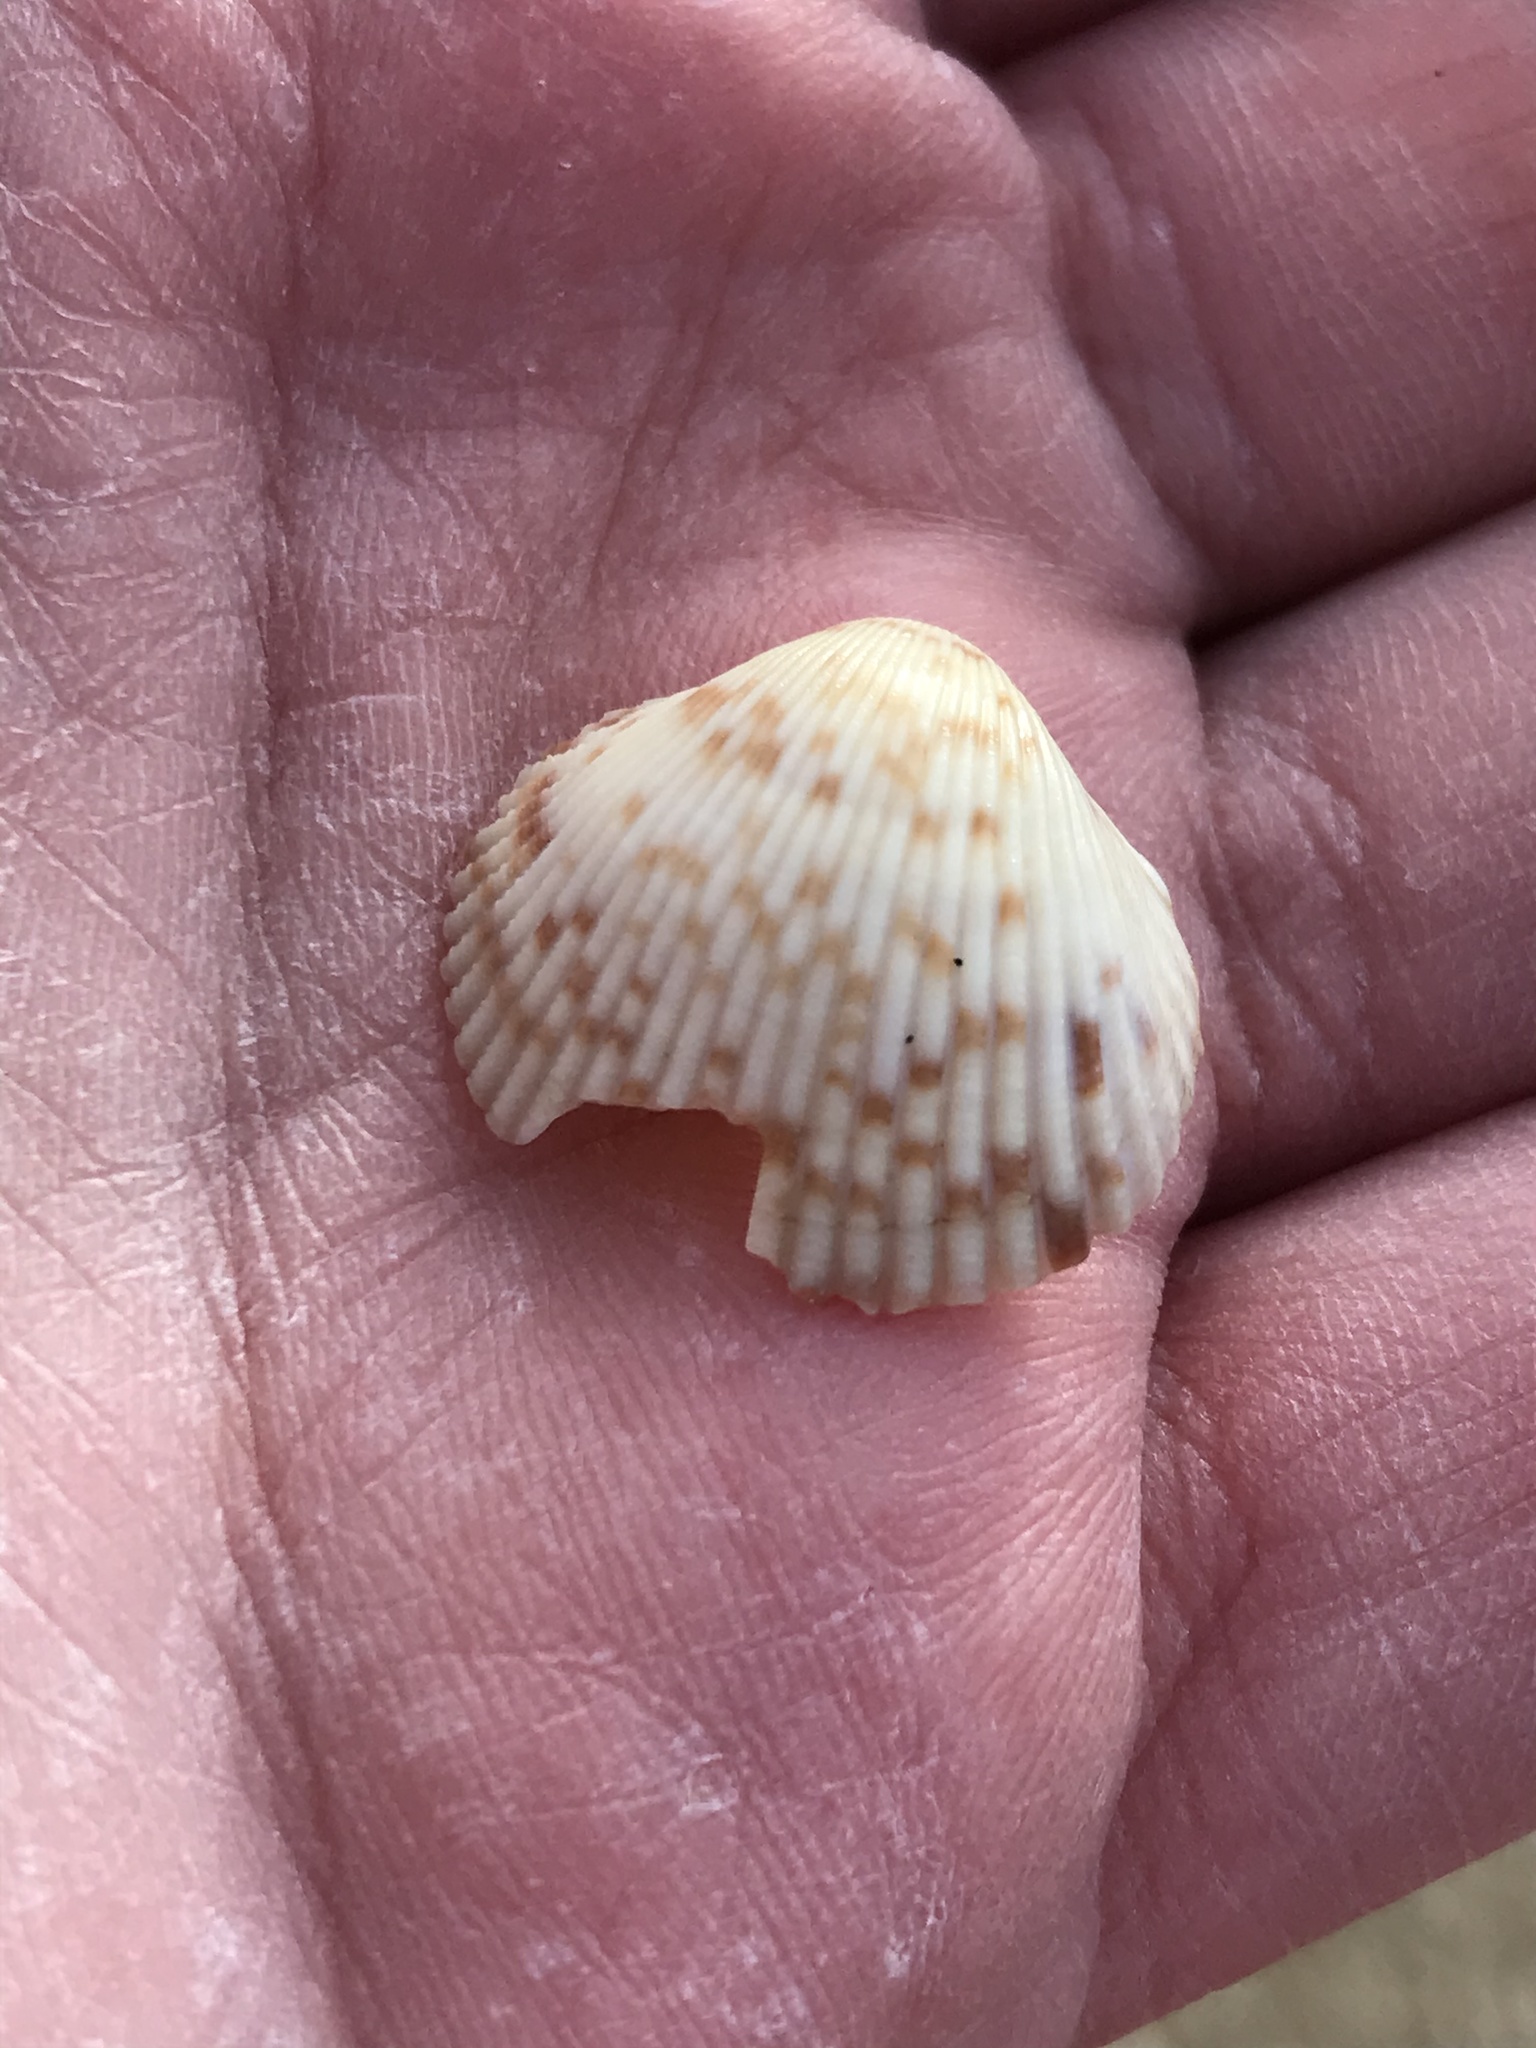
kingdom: Animalia
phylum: Mollusca
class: Bivalvia
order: Cardiida
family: Cardiidae
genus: Clinocardium
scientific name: Clinocardium nuttallii
